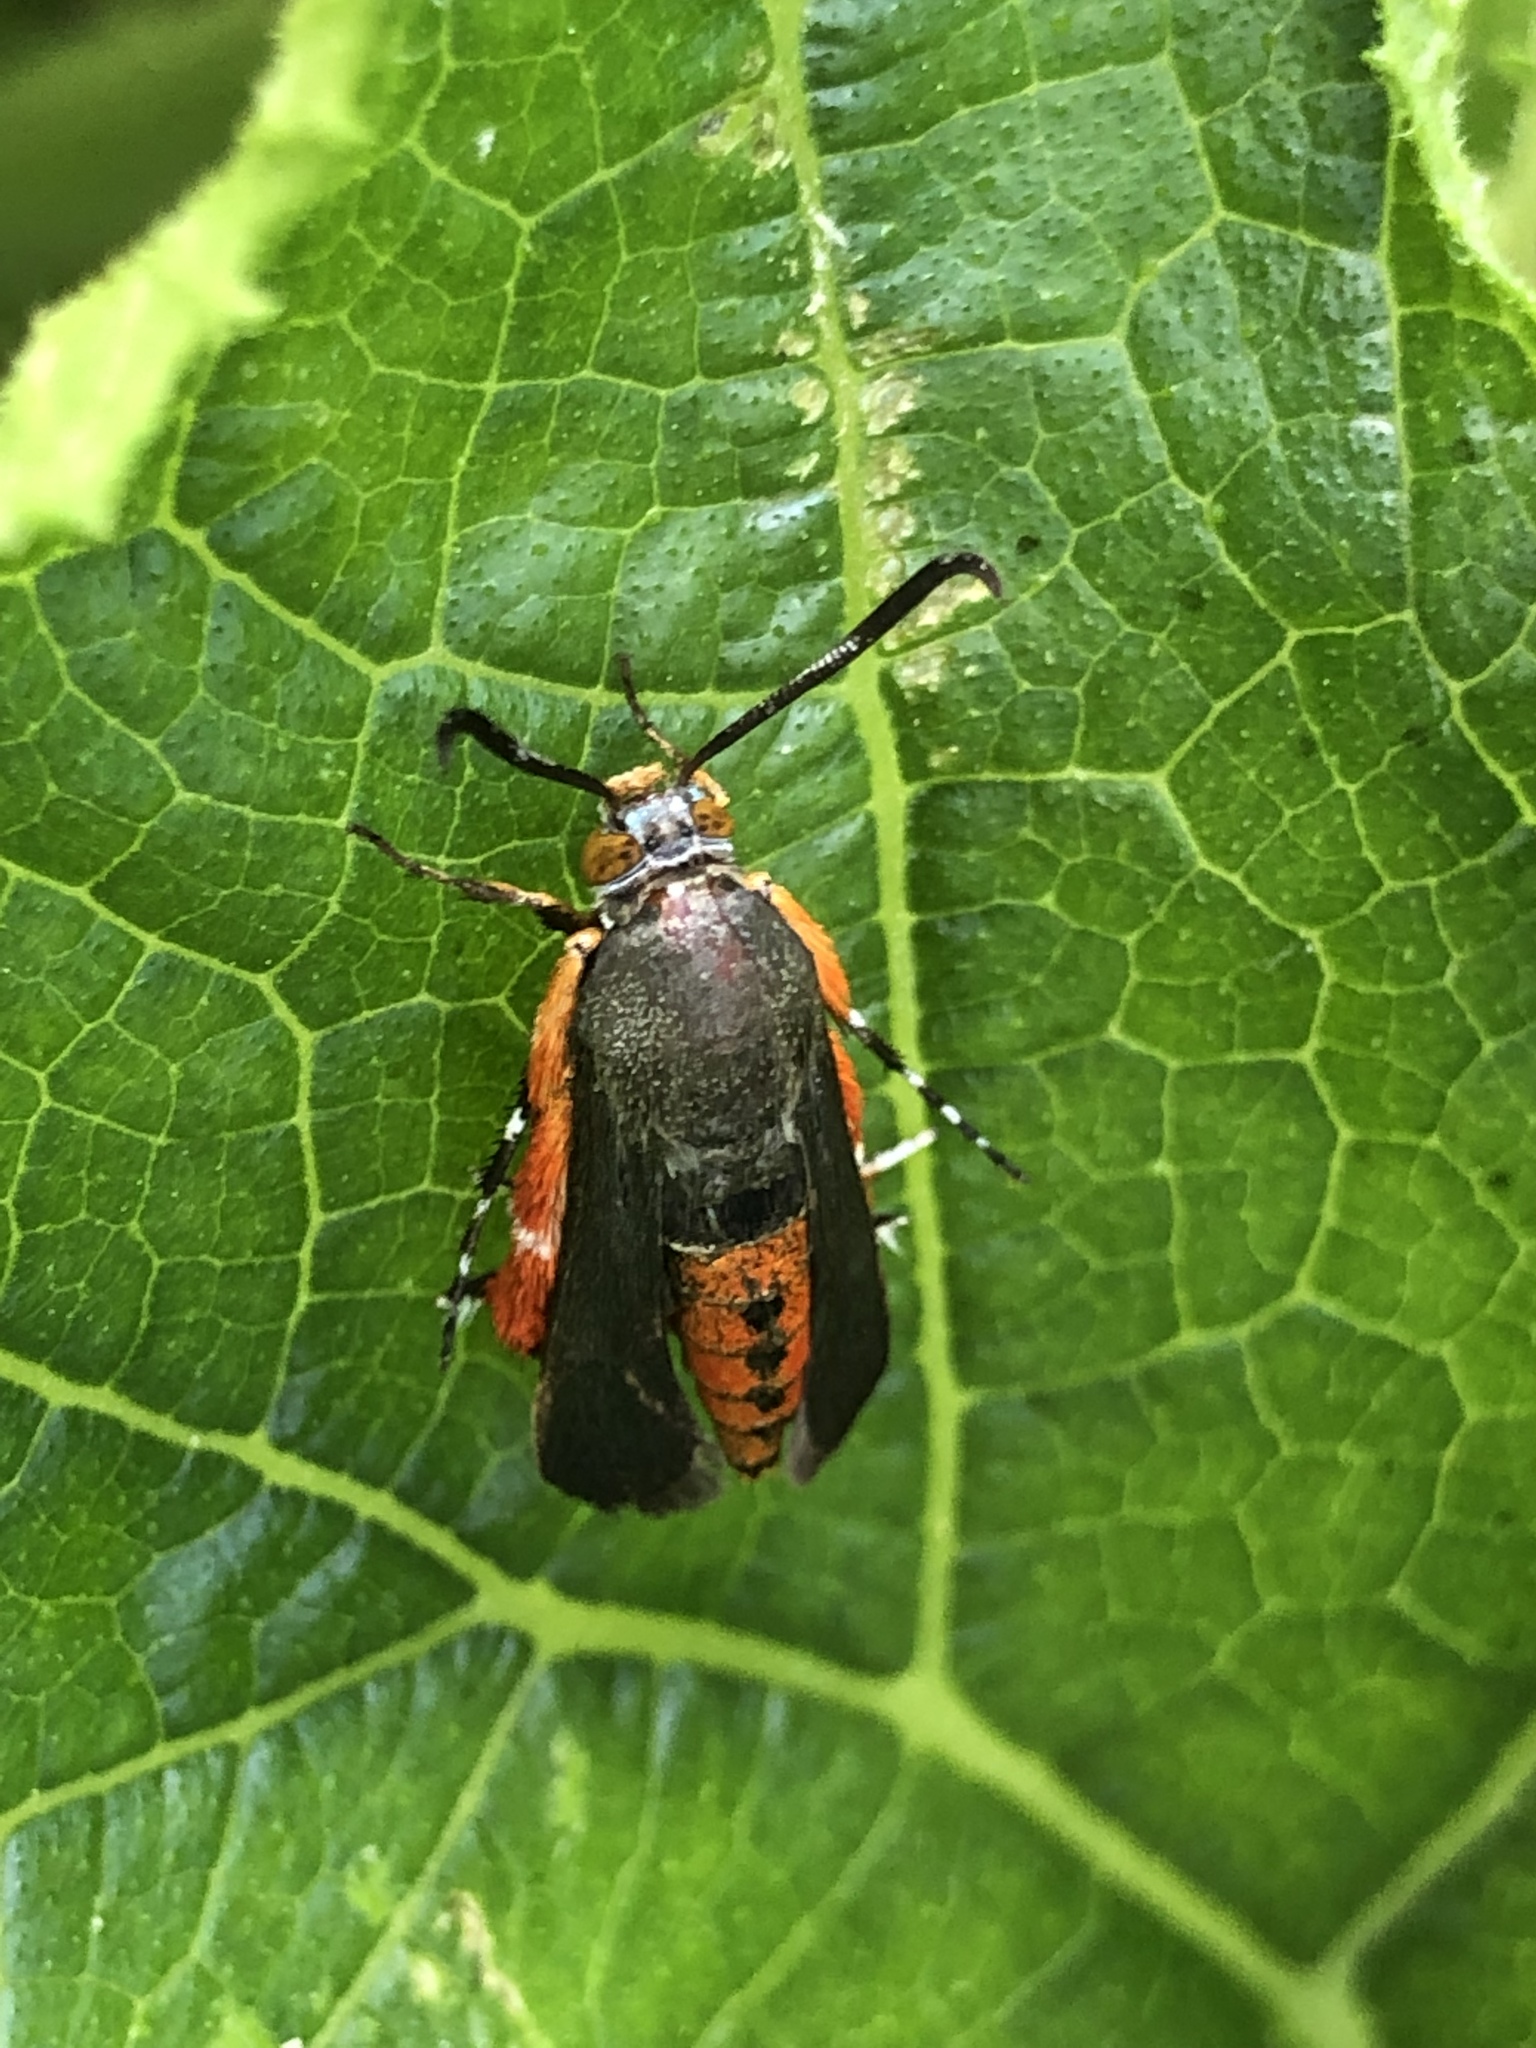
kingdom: Animalia
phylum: Arthropoda
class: Insecta
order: Lepidoptera
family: Sesiidae
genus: Eichlinia
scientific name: Eichlinia cucurbitae
